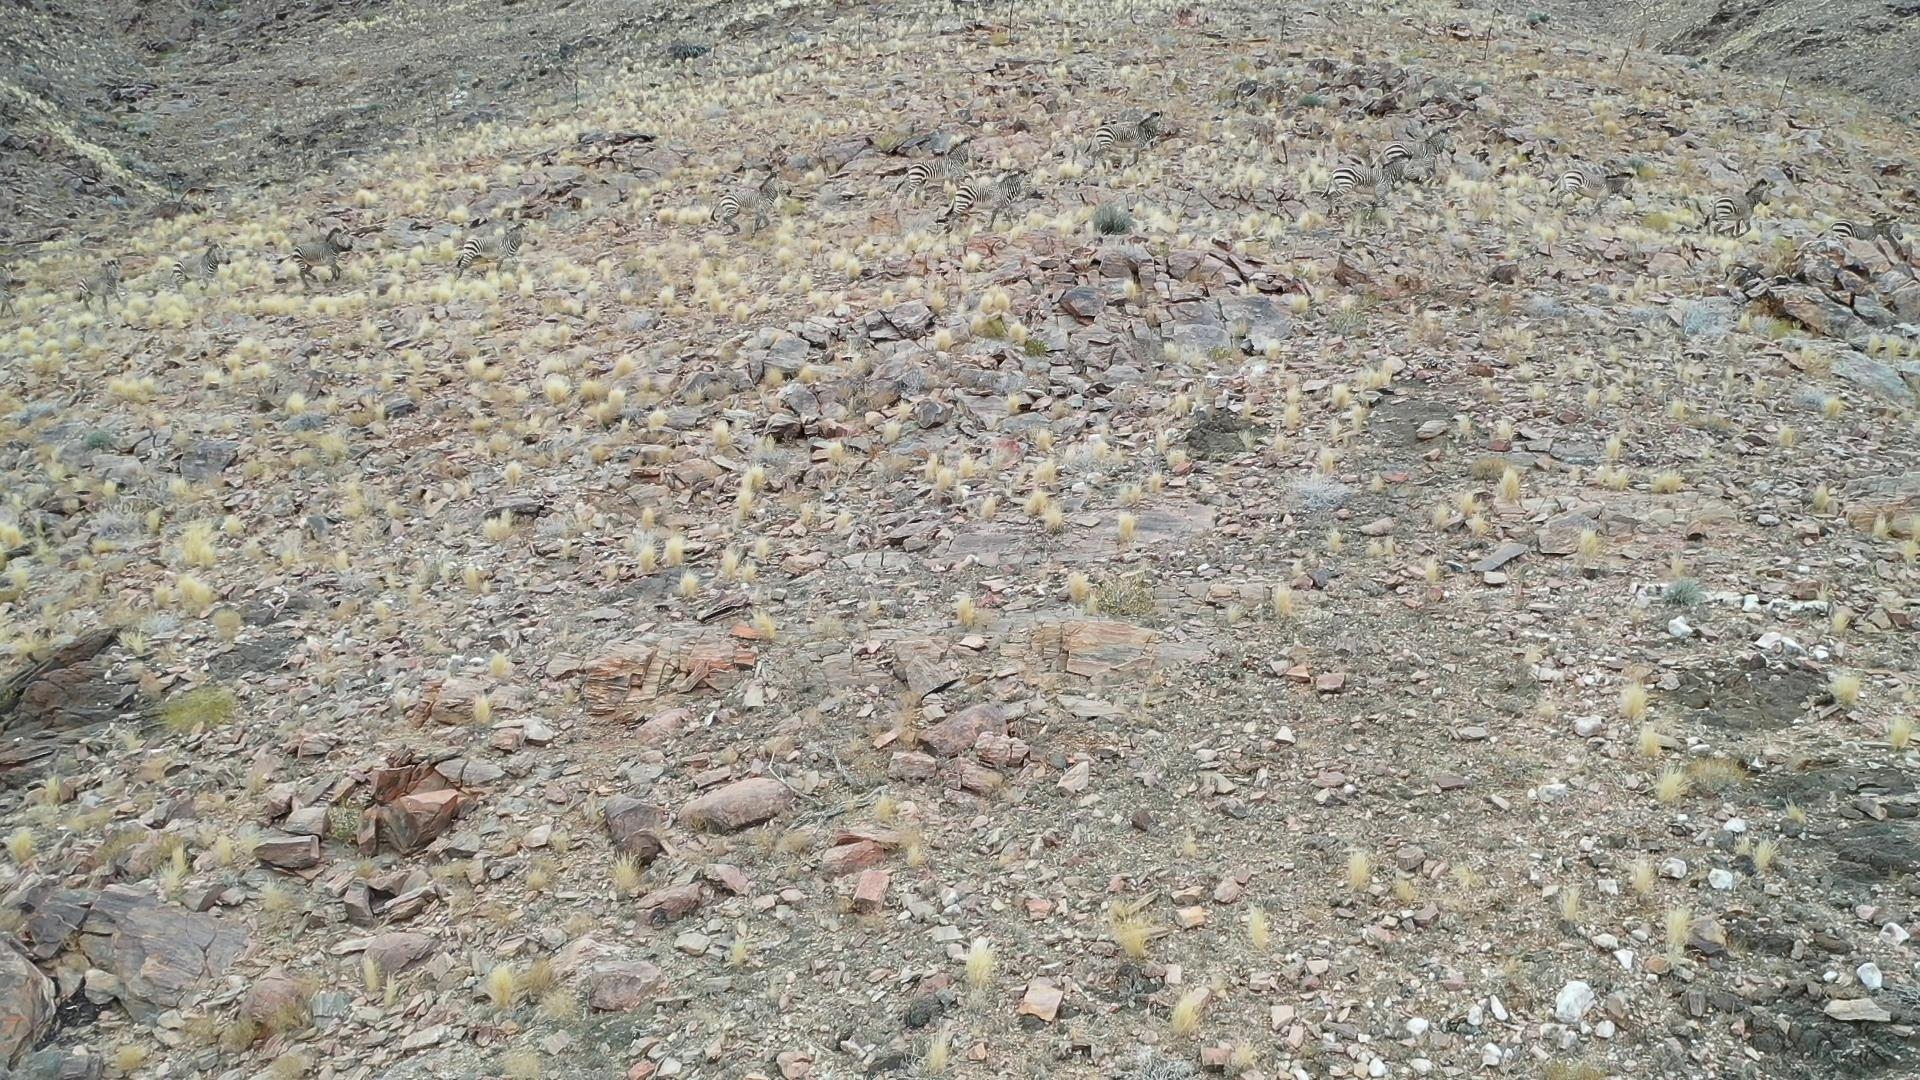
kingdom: Animalia
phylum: Chordata
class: Mammalia
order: Perissodactyla
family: Equidae
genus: Equus
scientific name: Equus hartmannae
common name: Hartmann's mountain zebra
